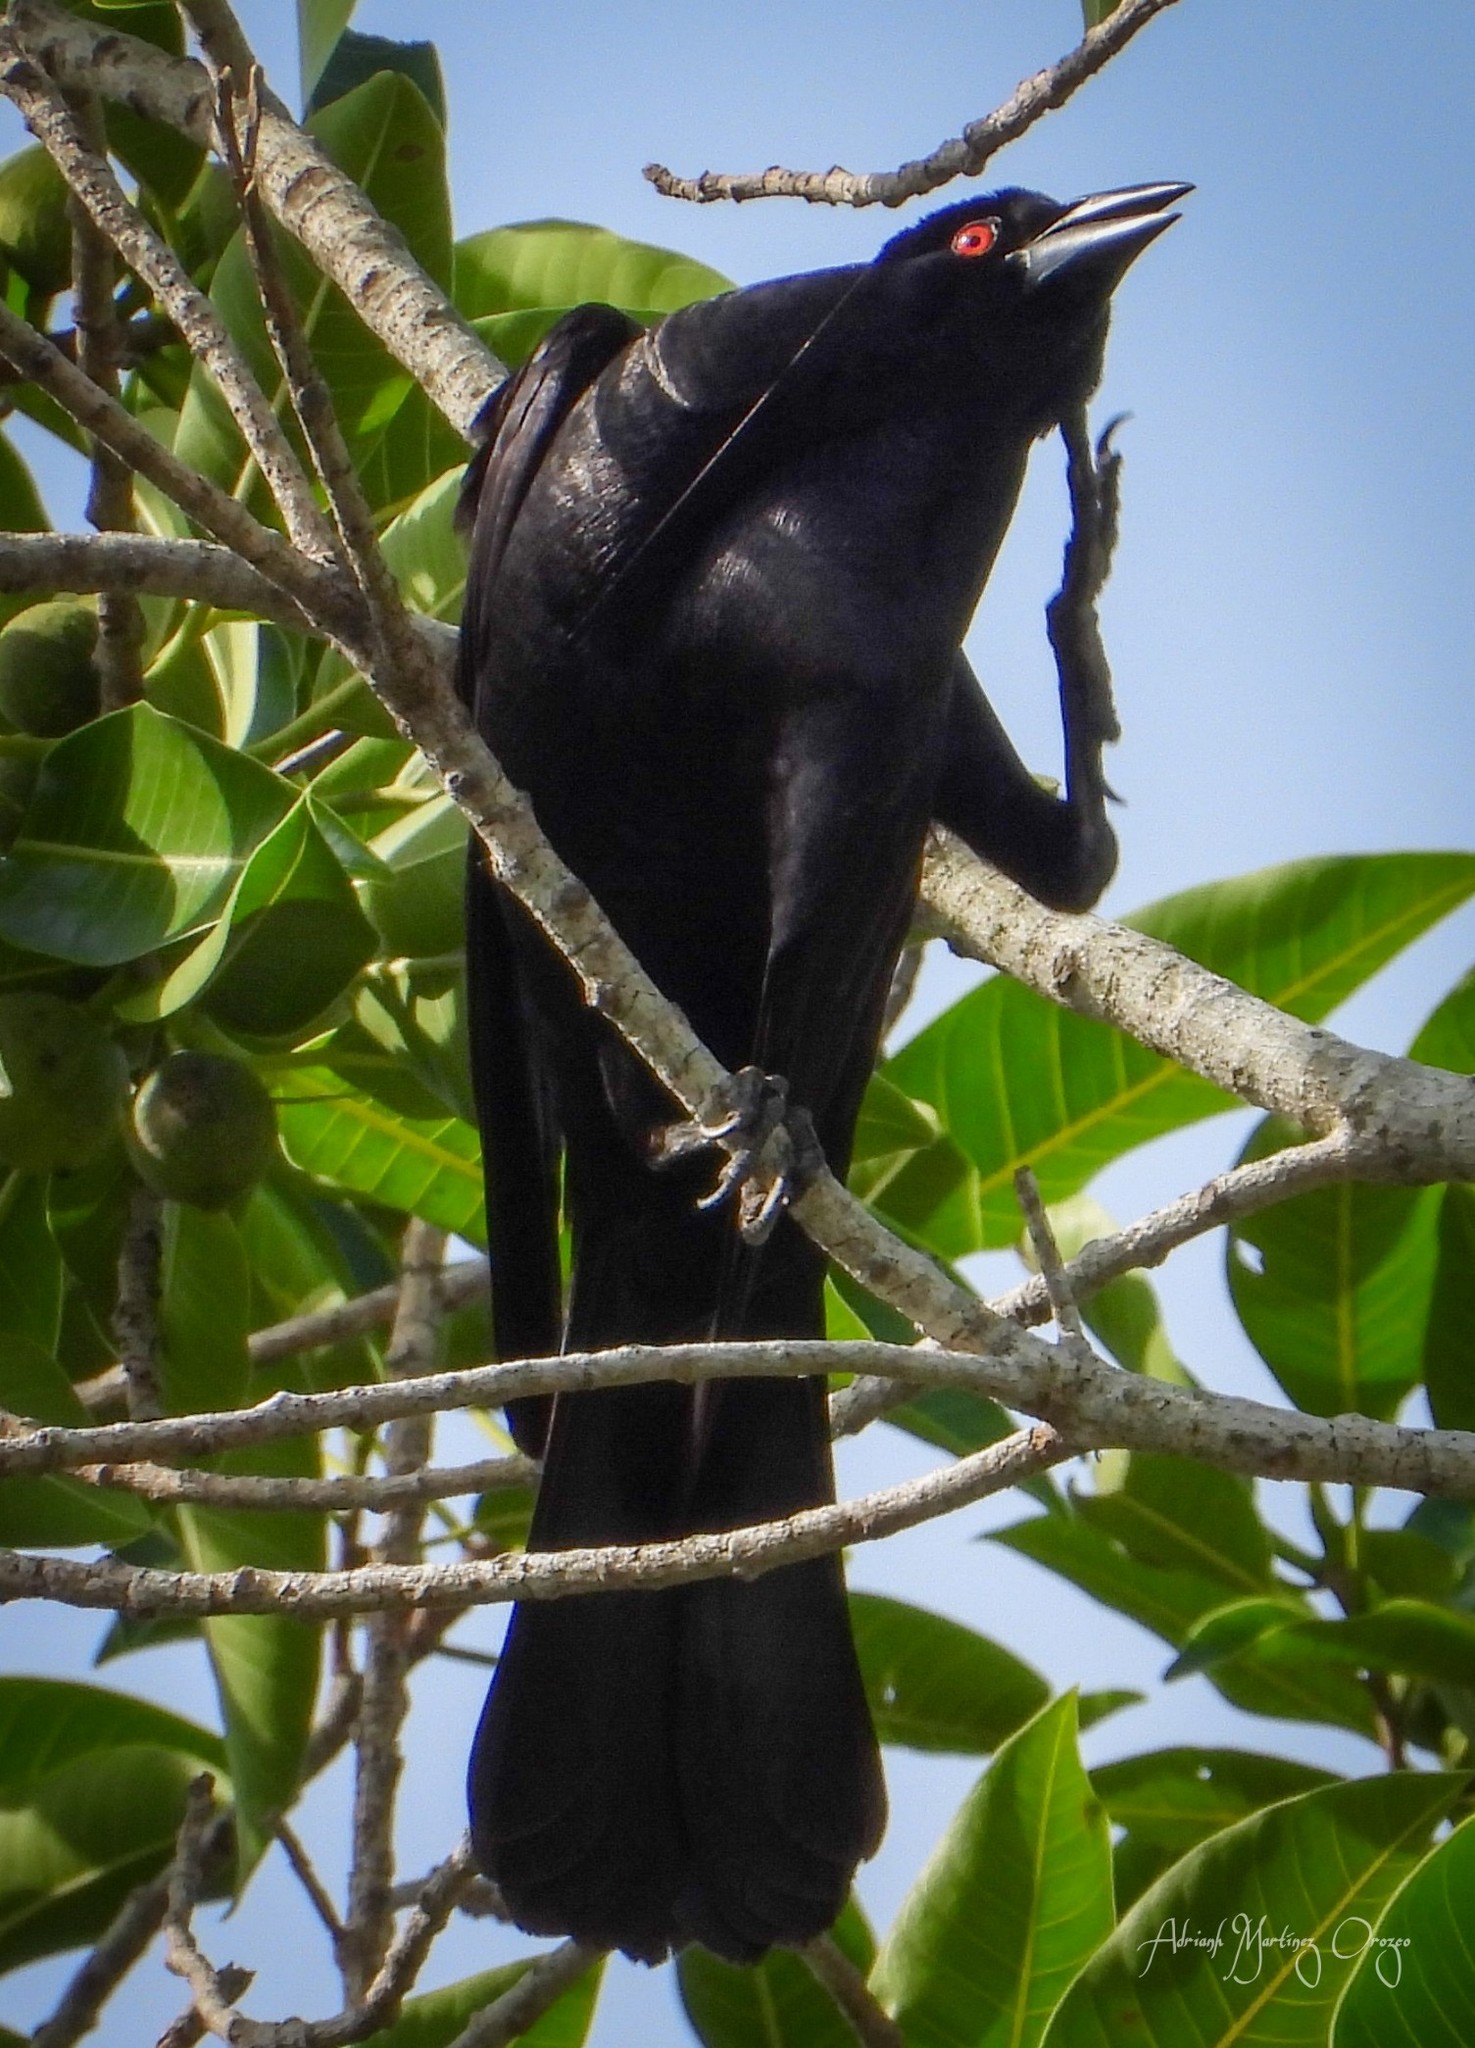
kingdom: Animalia
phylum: Chordata
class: Aves
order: Passeriformes
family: Icteridae
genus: Molothrus
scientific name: Molothrus oryzivorus
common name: Giant cowbird
